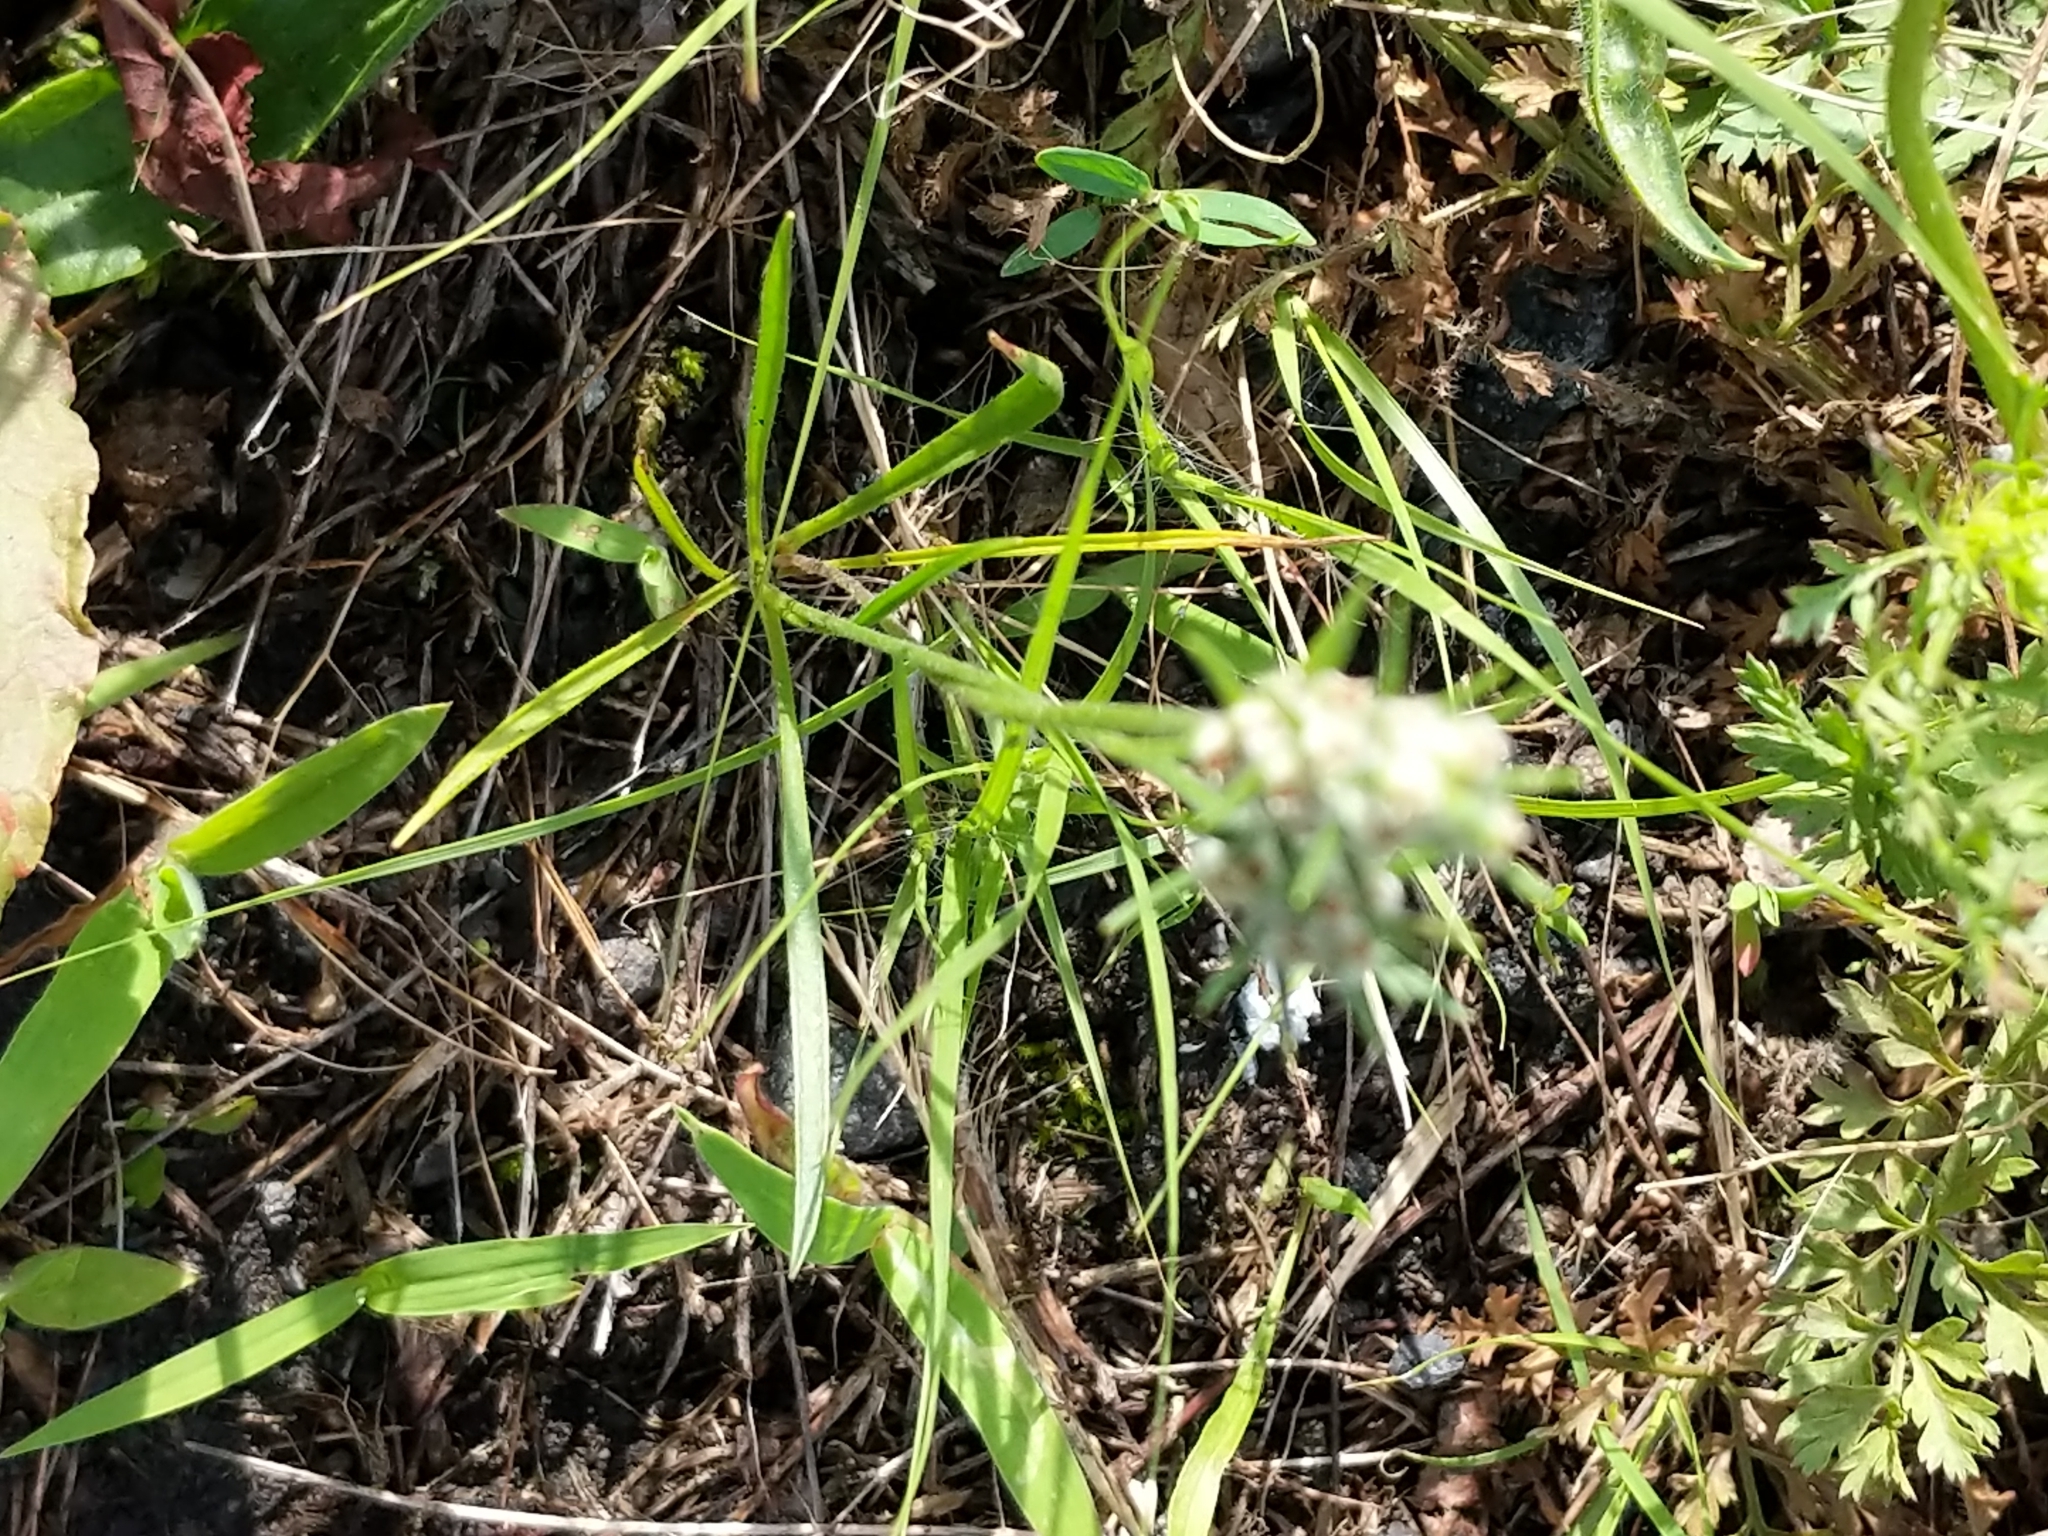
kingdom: Plantae
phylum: Tracheophyta
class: Magnoliopsida
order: Lamiales
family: Plantaginaceae
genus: Plantago
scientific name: Plantago aristata
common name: Bracted plantain
